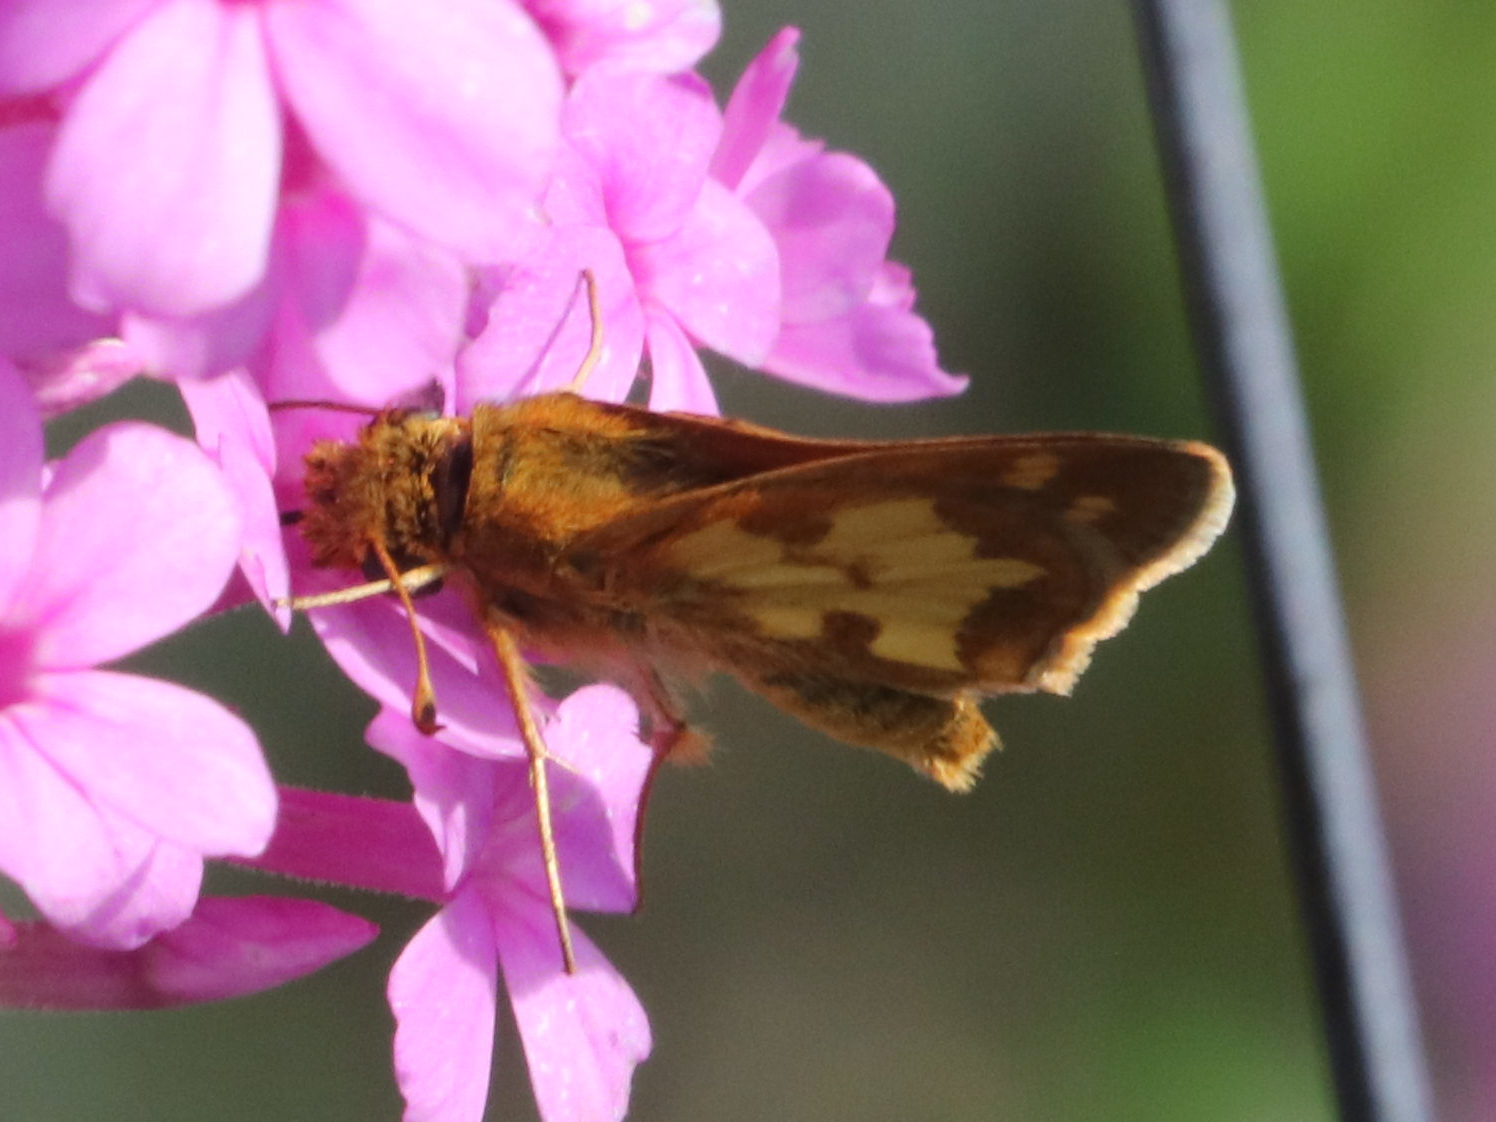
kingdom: Animalia
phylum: Arthropoda
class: Insecta
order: Lepidoptera
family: Hesperiidae
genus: Polites
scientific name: Polites coras
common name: Peck's skipper
